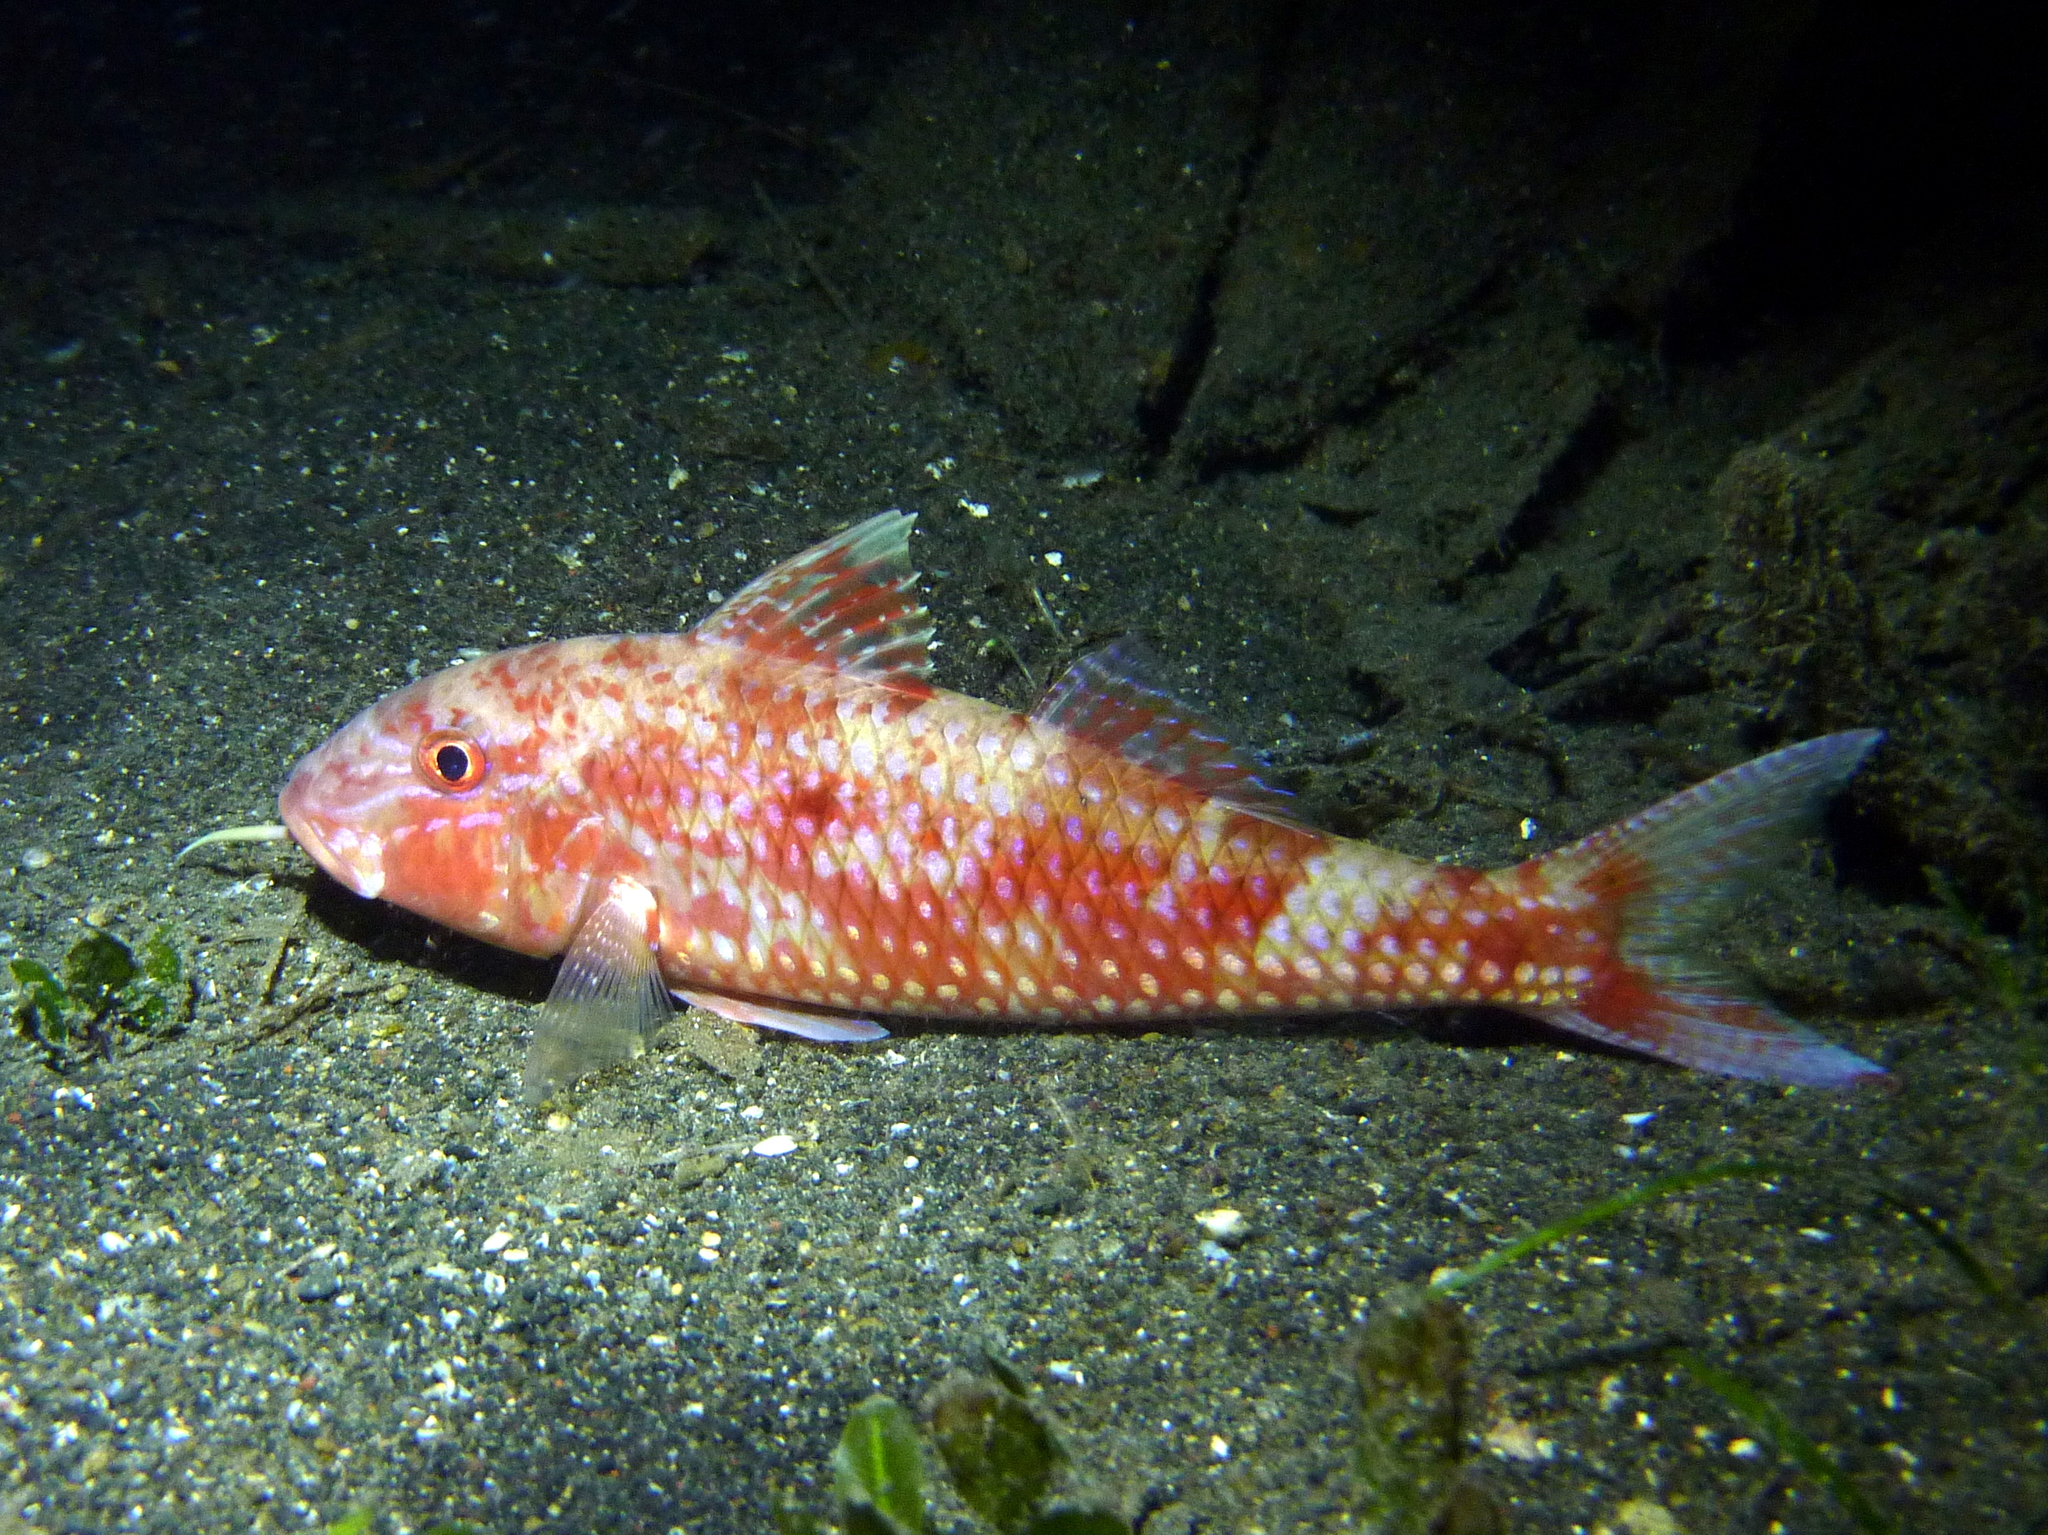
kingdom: Animalia
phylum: Chordata
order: Perciformes
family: Mullidae
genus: Parupeneus
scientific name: Parupeneus heptacanthus
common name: Cinnabar goatfish
